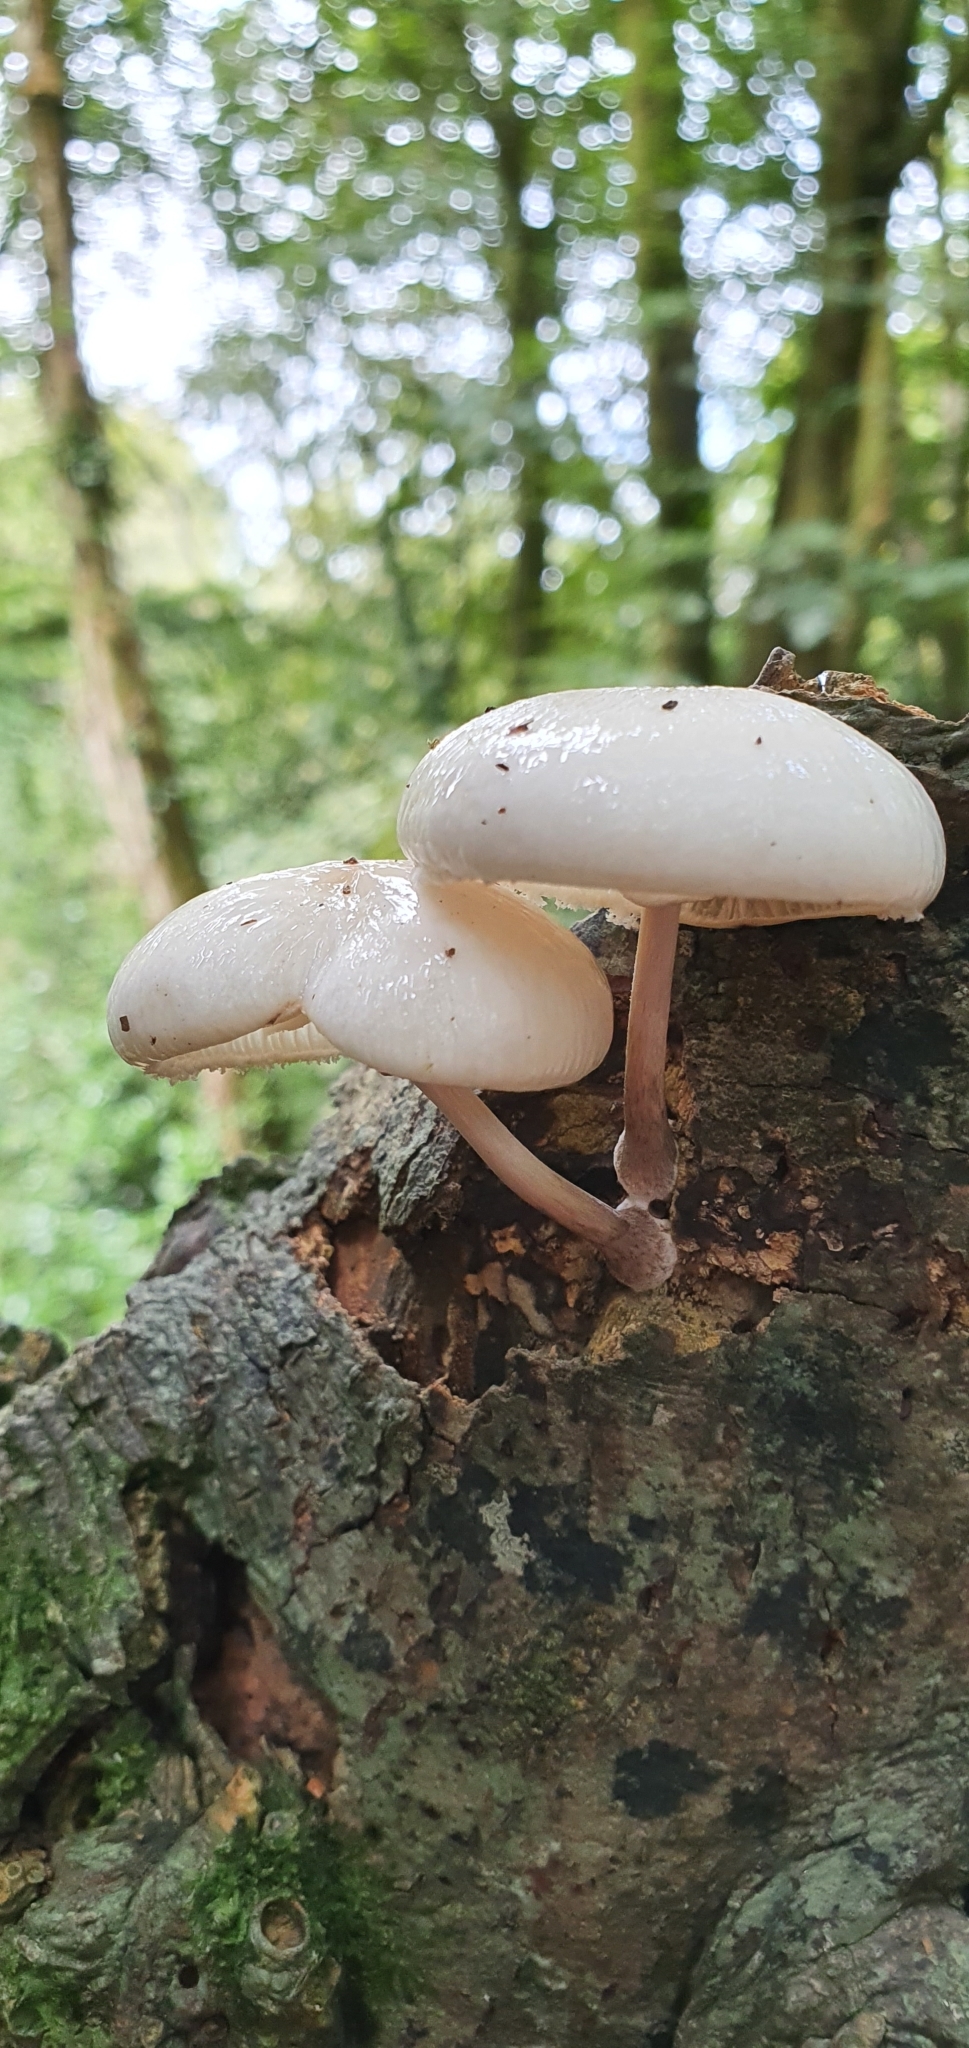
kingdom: Fungi
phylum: Basidiomycota
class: Agaricomycetes
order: Agaricales
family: Physalacriaceae
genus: Mucidula
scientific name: Mucidula mucida
